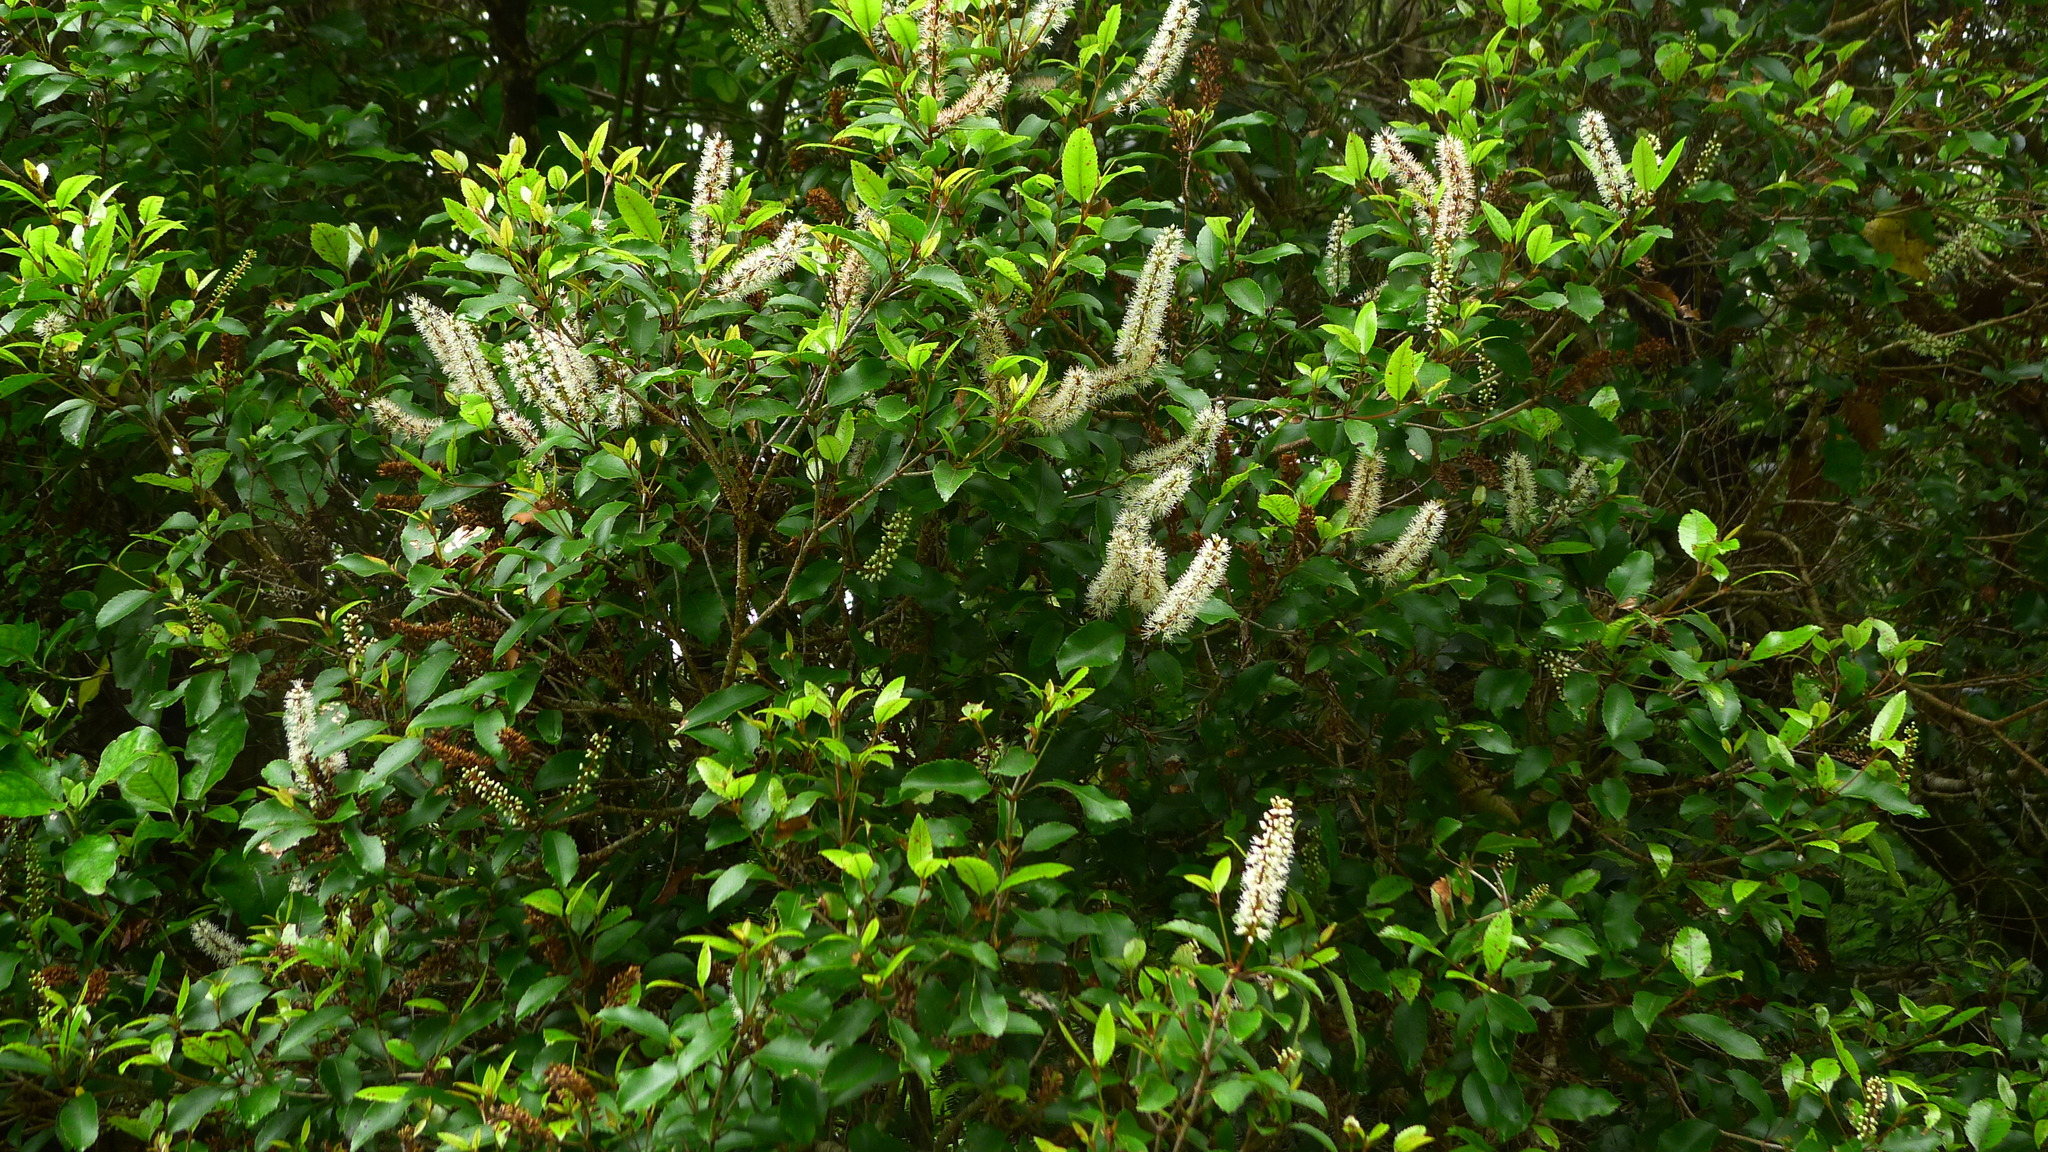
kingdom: Plantae
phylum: Tracheophyta
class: Magnoliopsida
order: Oxalidales
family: Cunoniaceae
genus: Pterophylla
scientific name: Pterophylla racemosa
